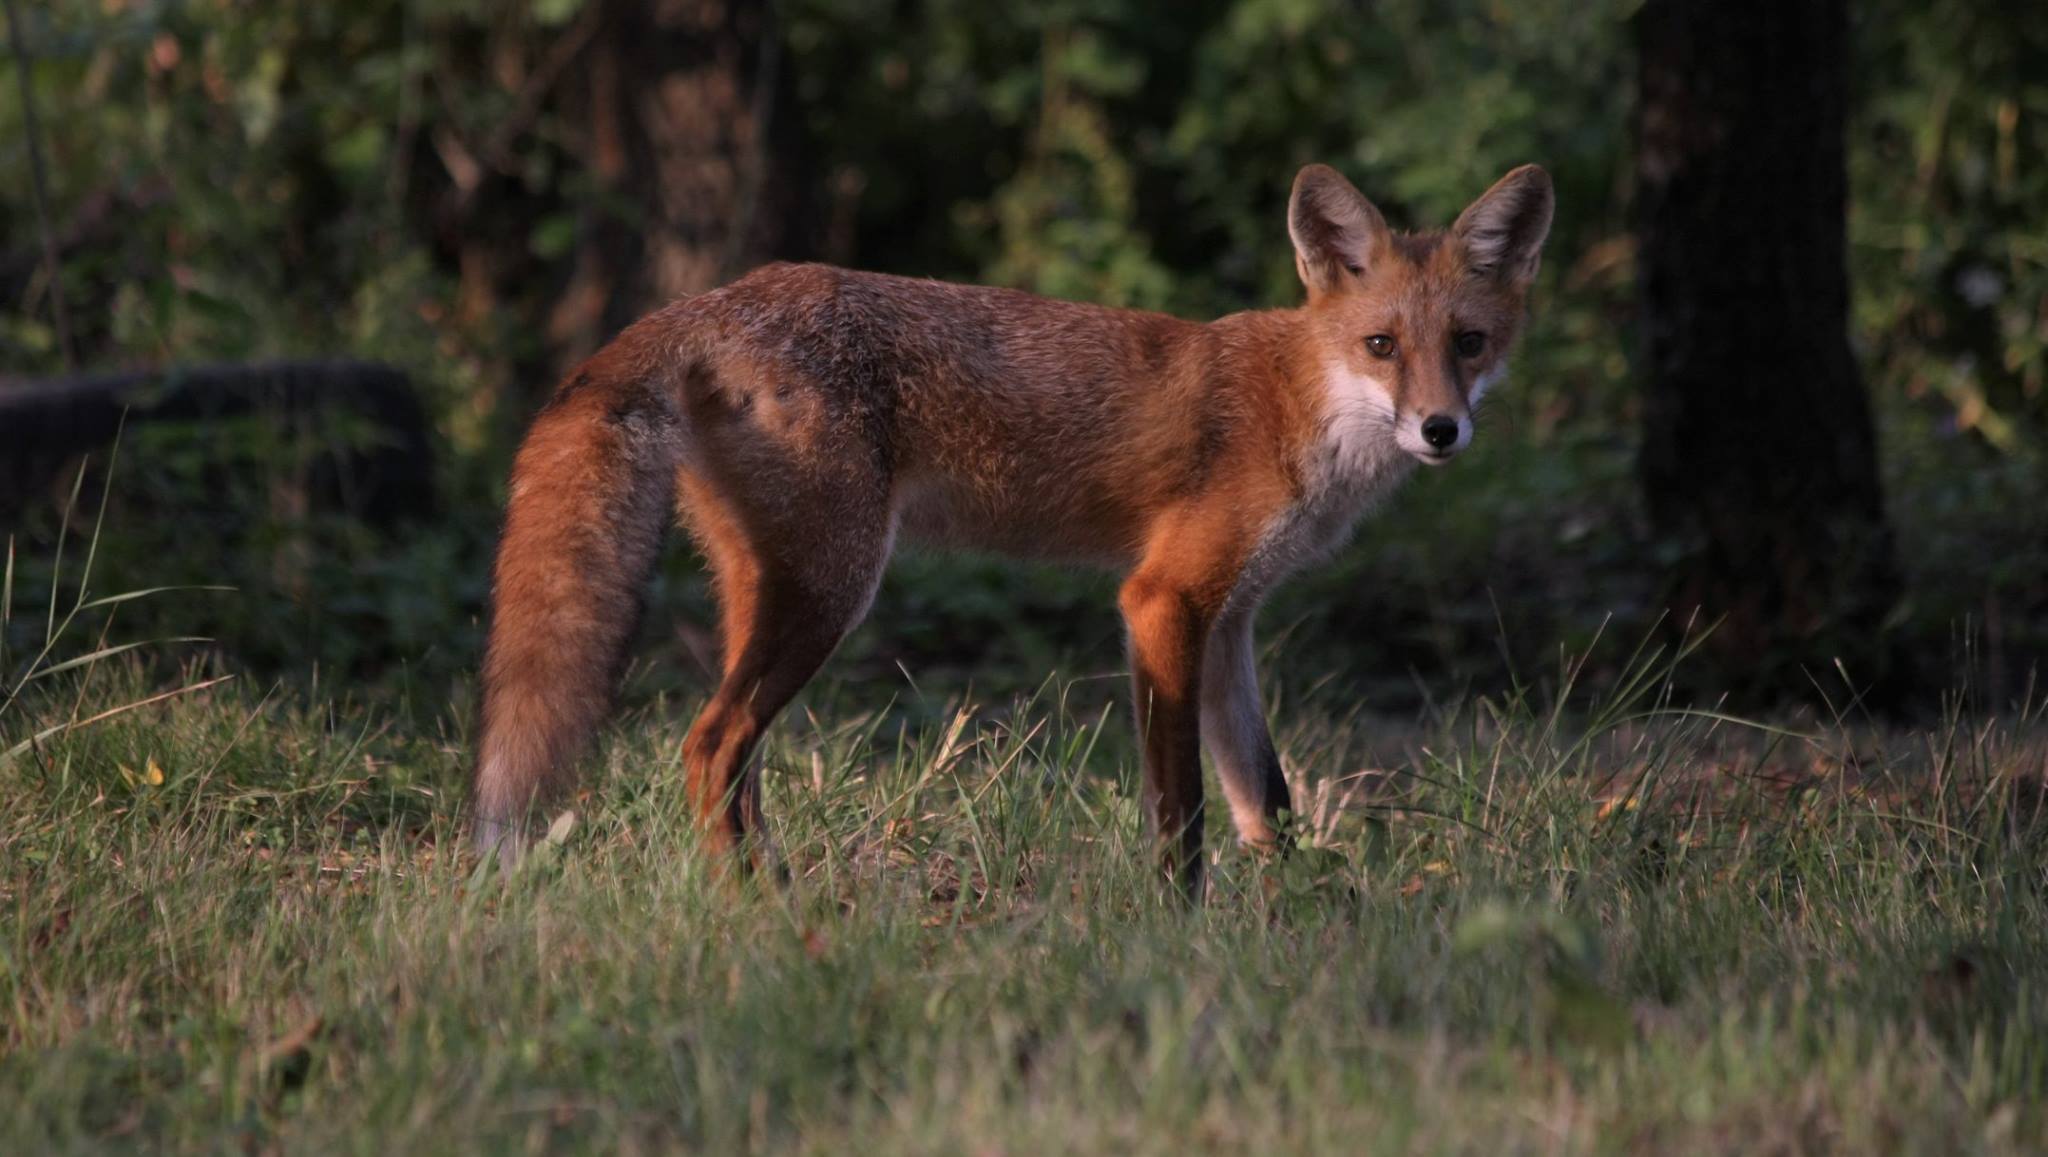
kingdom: Animalia
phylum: Chordata
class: Mammalia
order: Carnivora
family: Canidae
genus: Vulpes
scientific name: Vulpes vulpes
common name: Red fox
